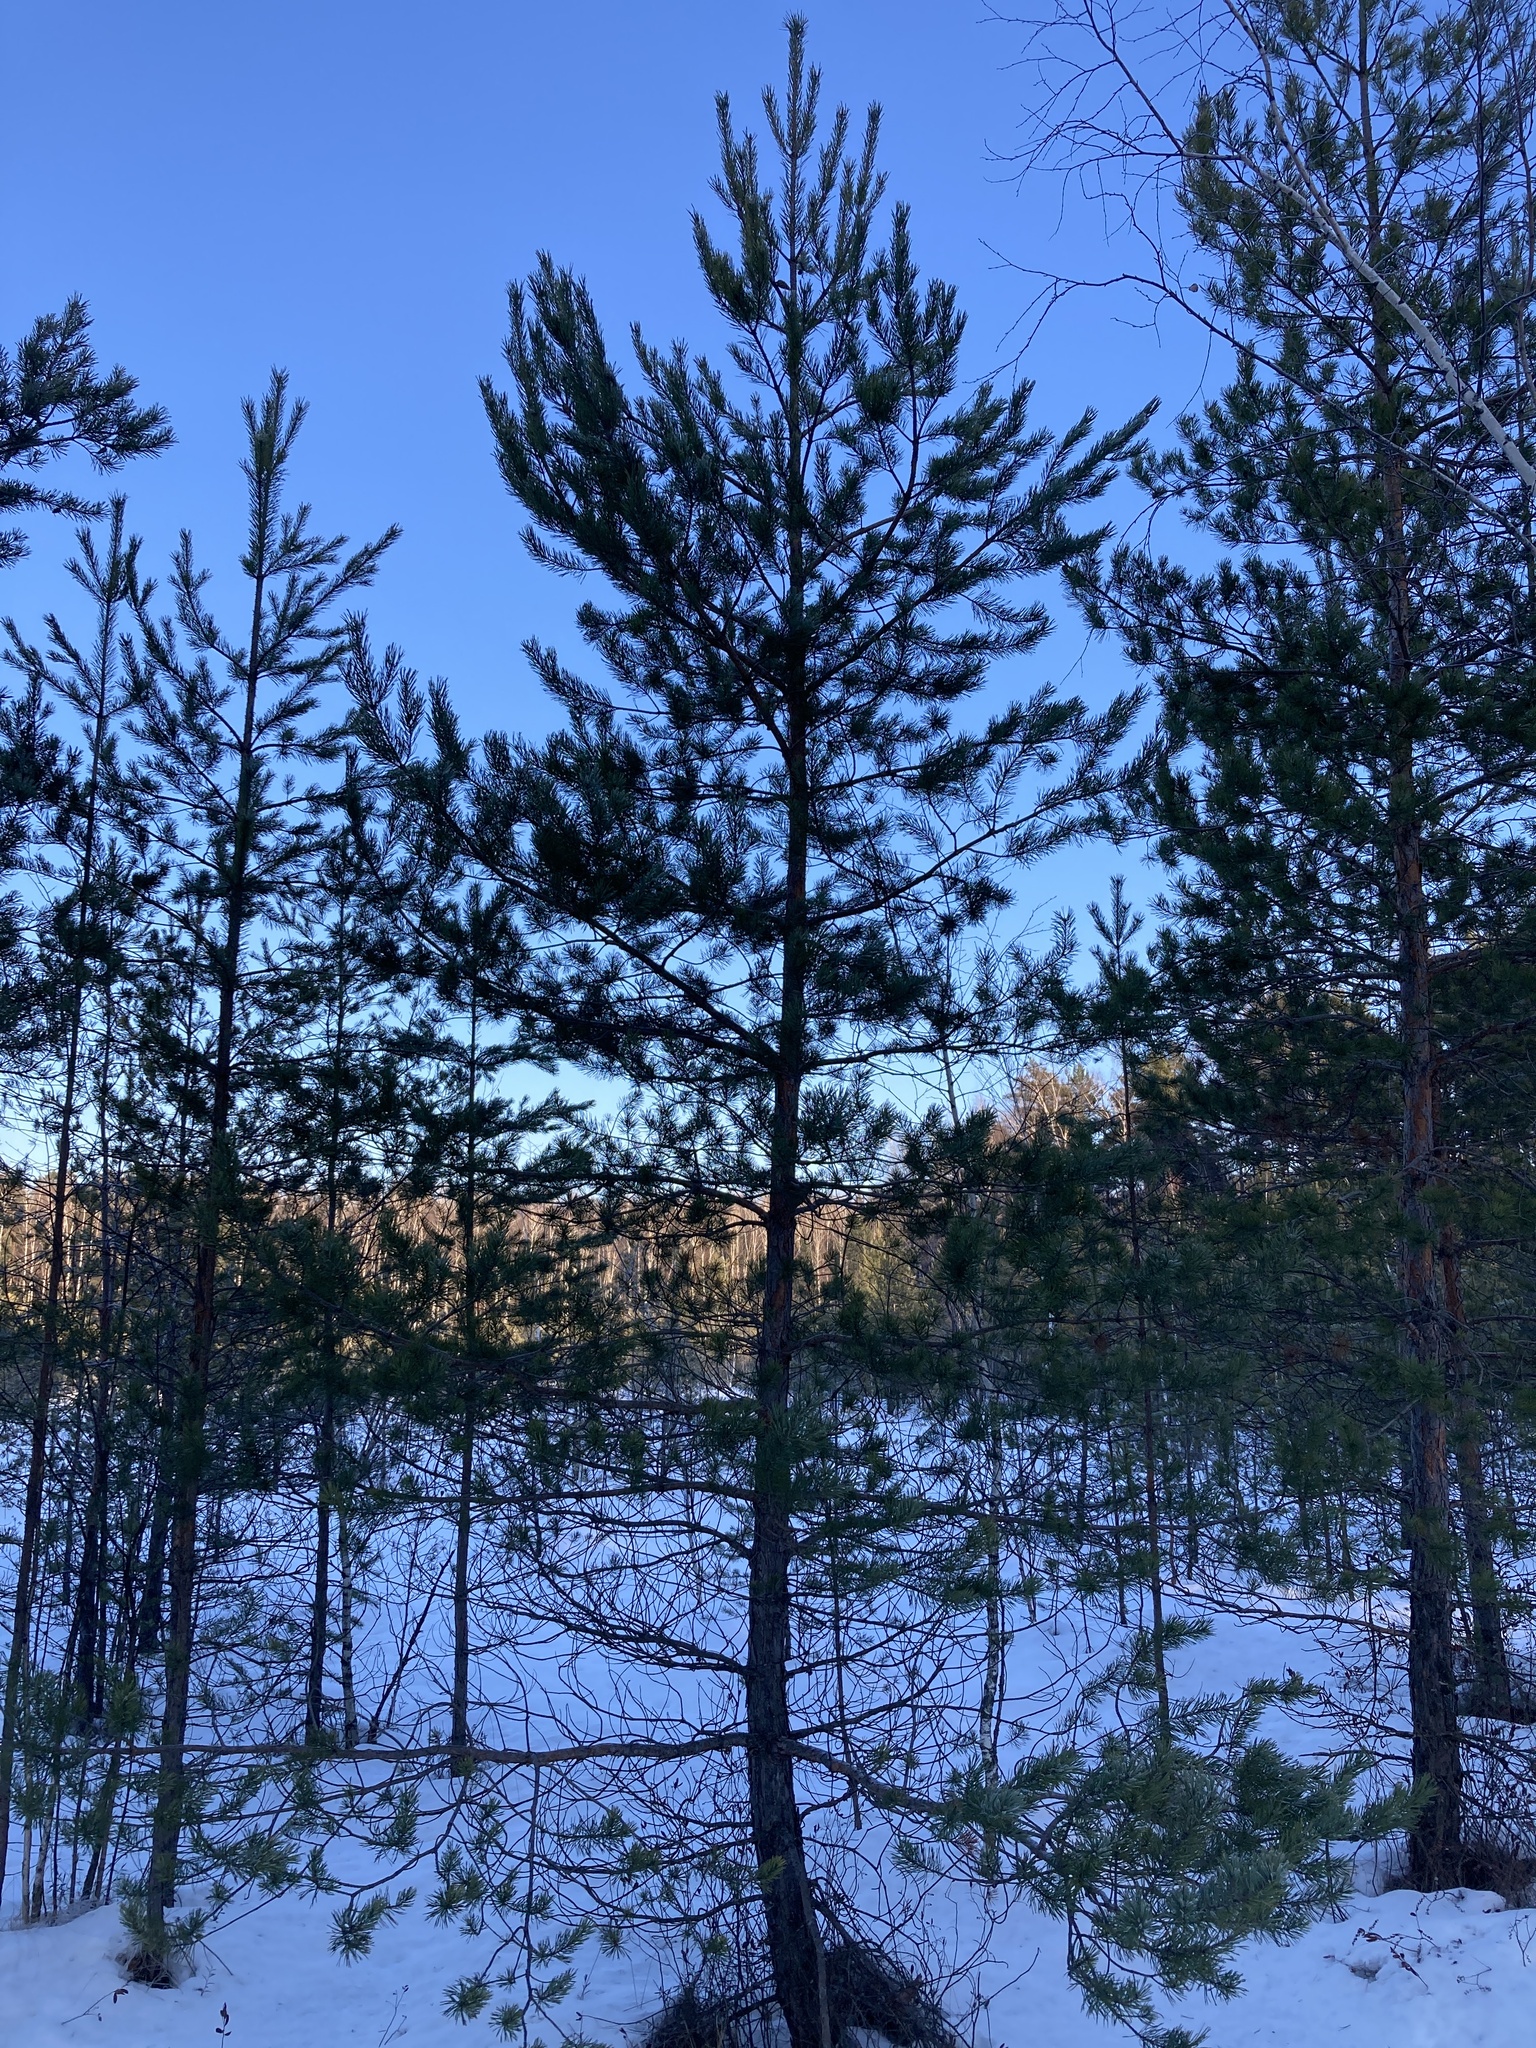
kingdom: Plantae
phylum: Tracheophyta
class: Pinopsida
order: Pinales
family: Pinaceae
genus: Pinus
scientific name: Pinus sylvestris
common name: Scots pine
